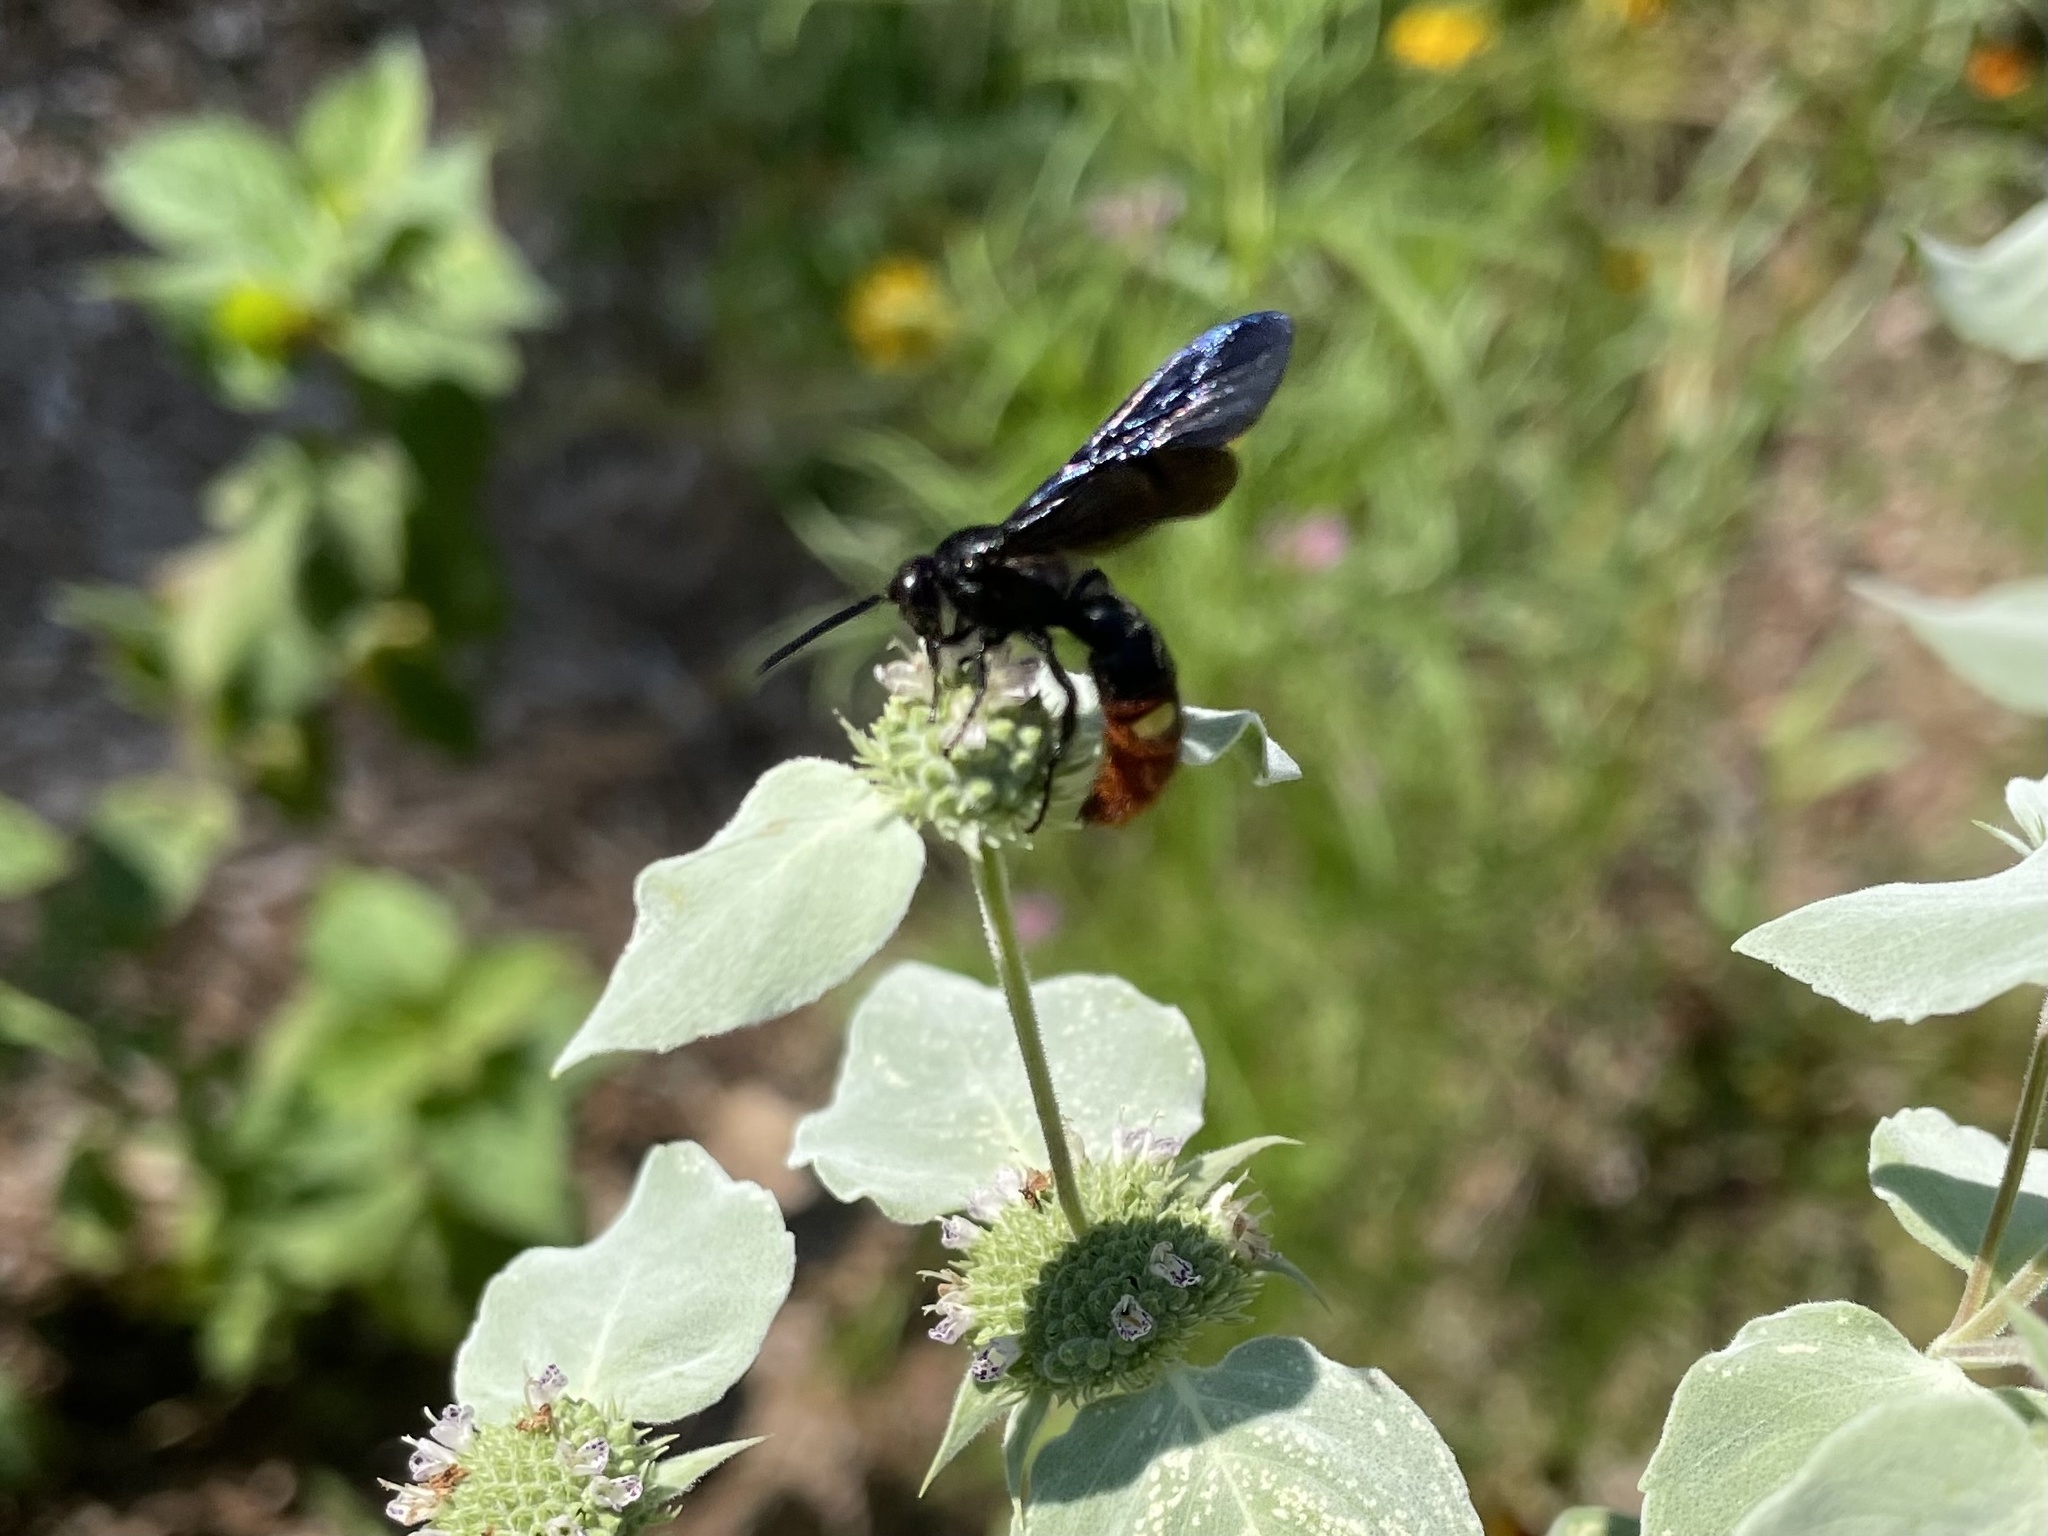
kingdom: Animalia
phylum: Arthropoda
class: Insecta
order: Hymenoptera
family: Scoliidae
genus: Scolia
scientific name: Scolia dubia
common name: Blue-winged scoliid wasp
